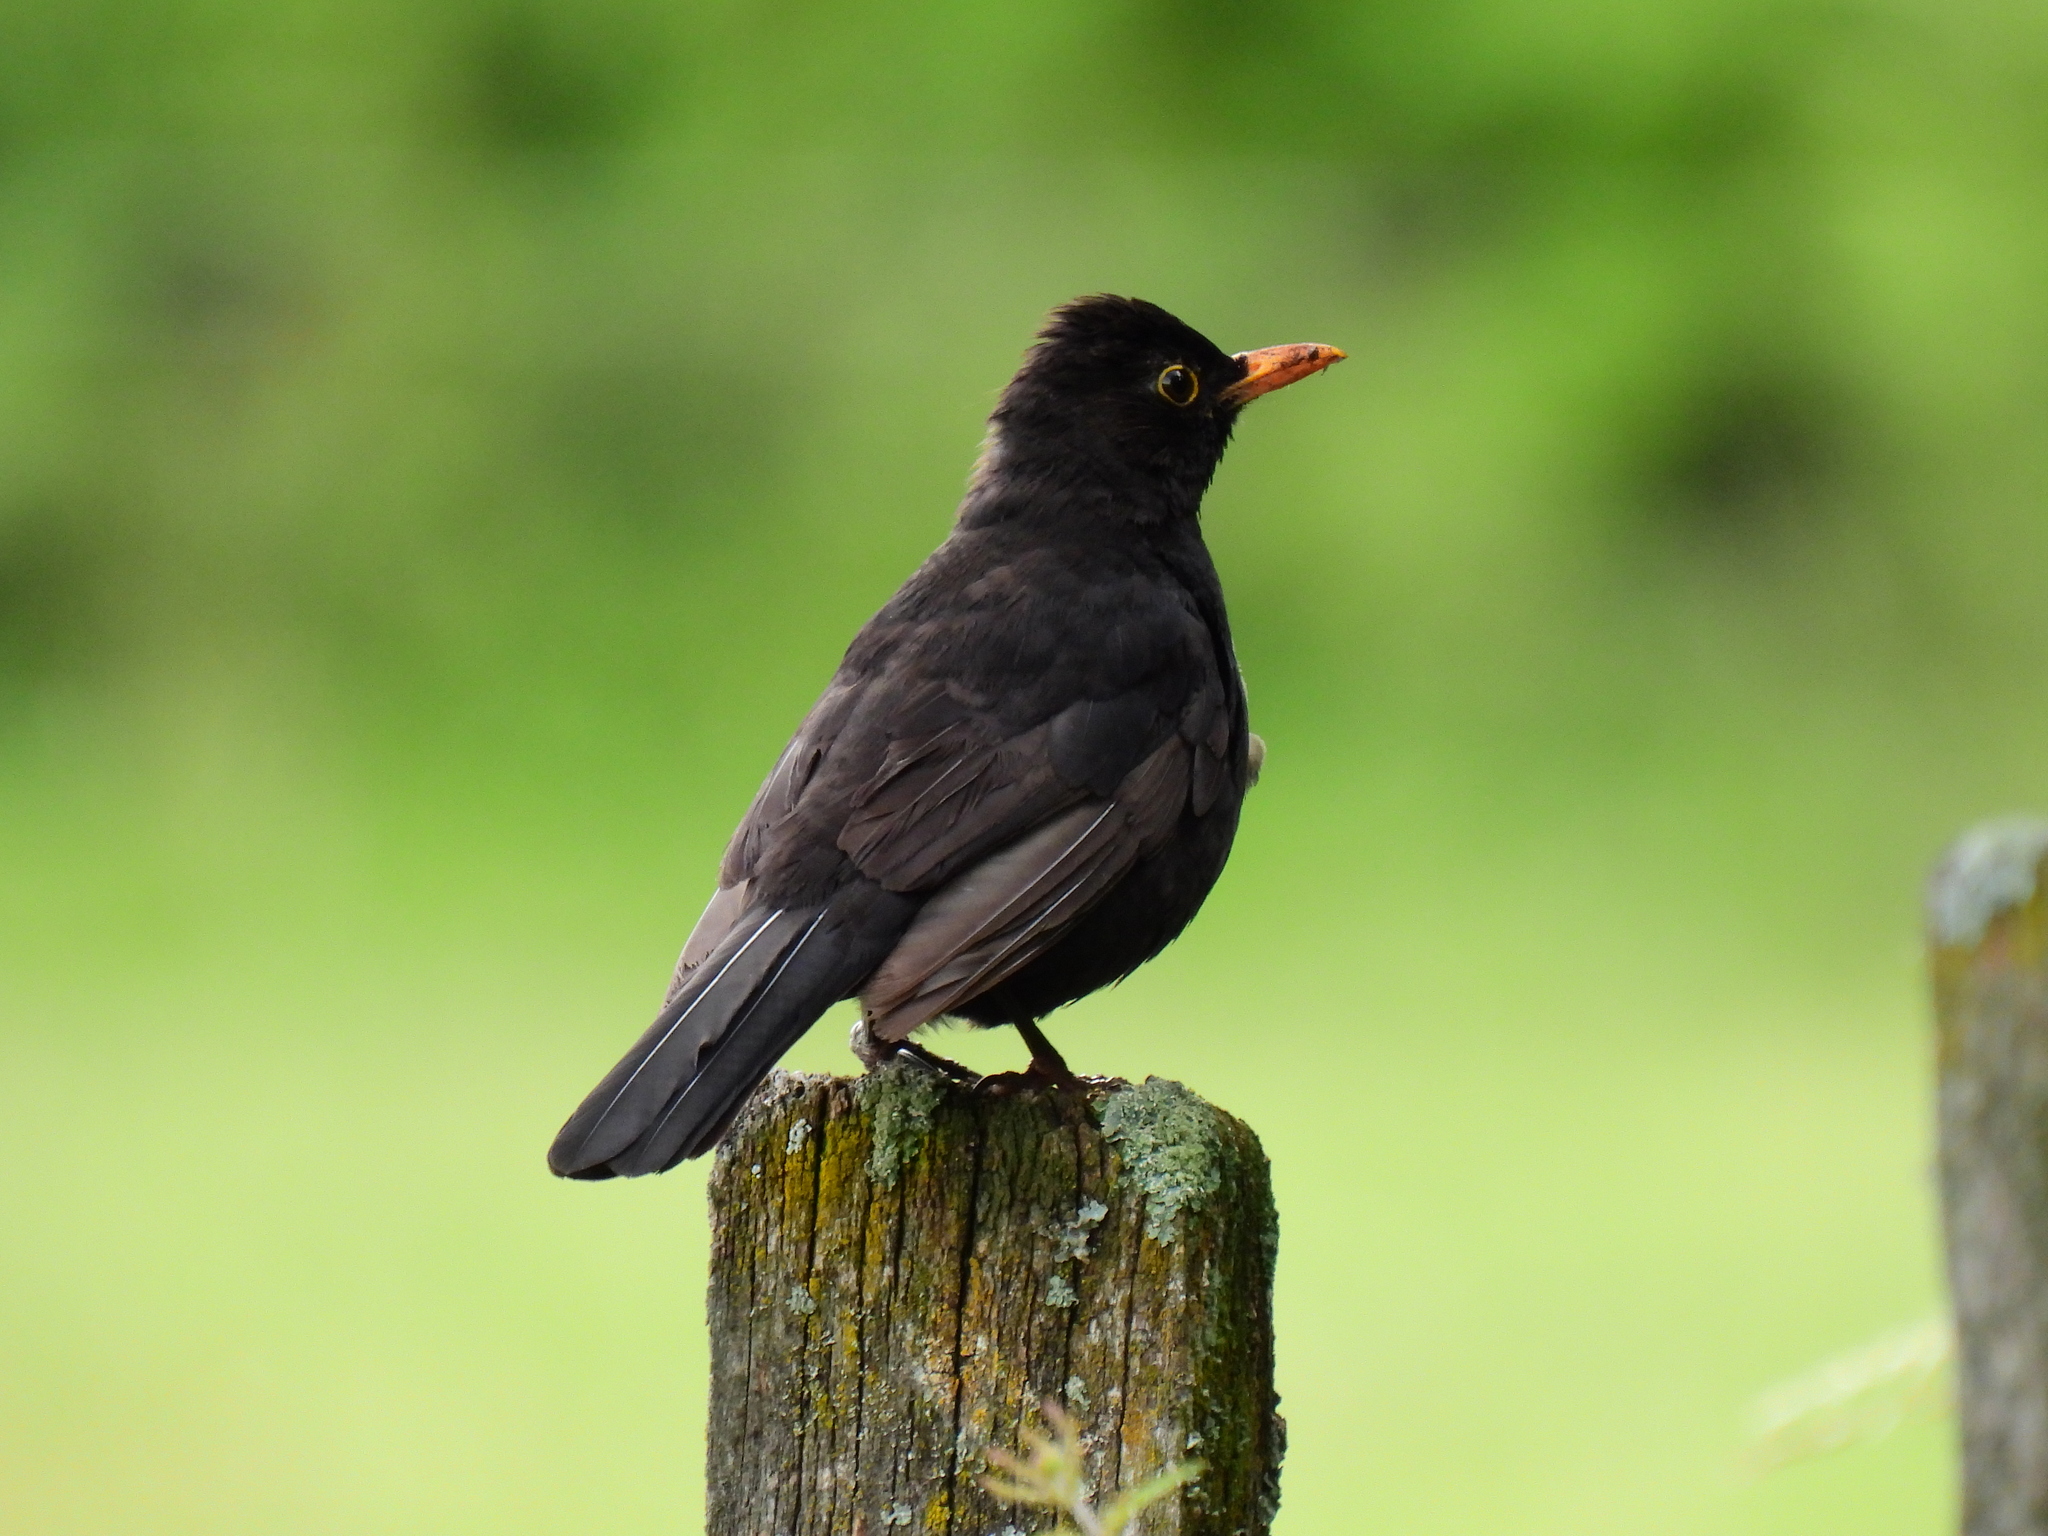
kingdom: Animalia
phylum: Chordata
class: Aves
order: Passeriformes
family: Turdidae
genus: Turdus
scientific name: Turdus merula
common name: Common blackbird
